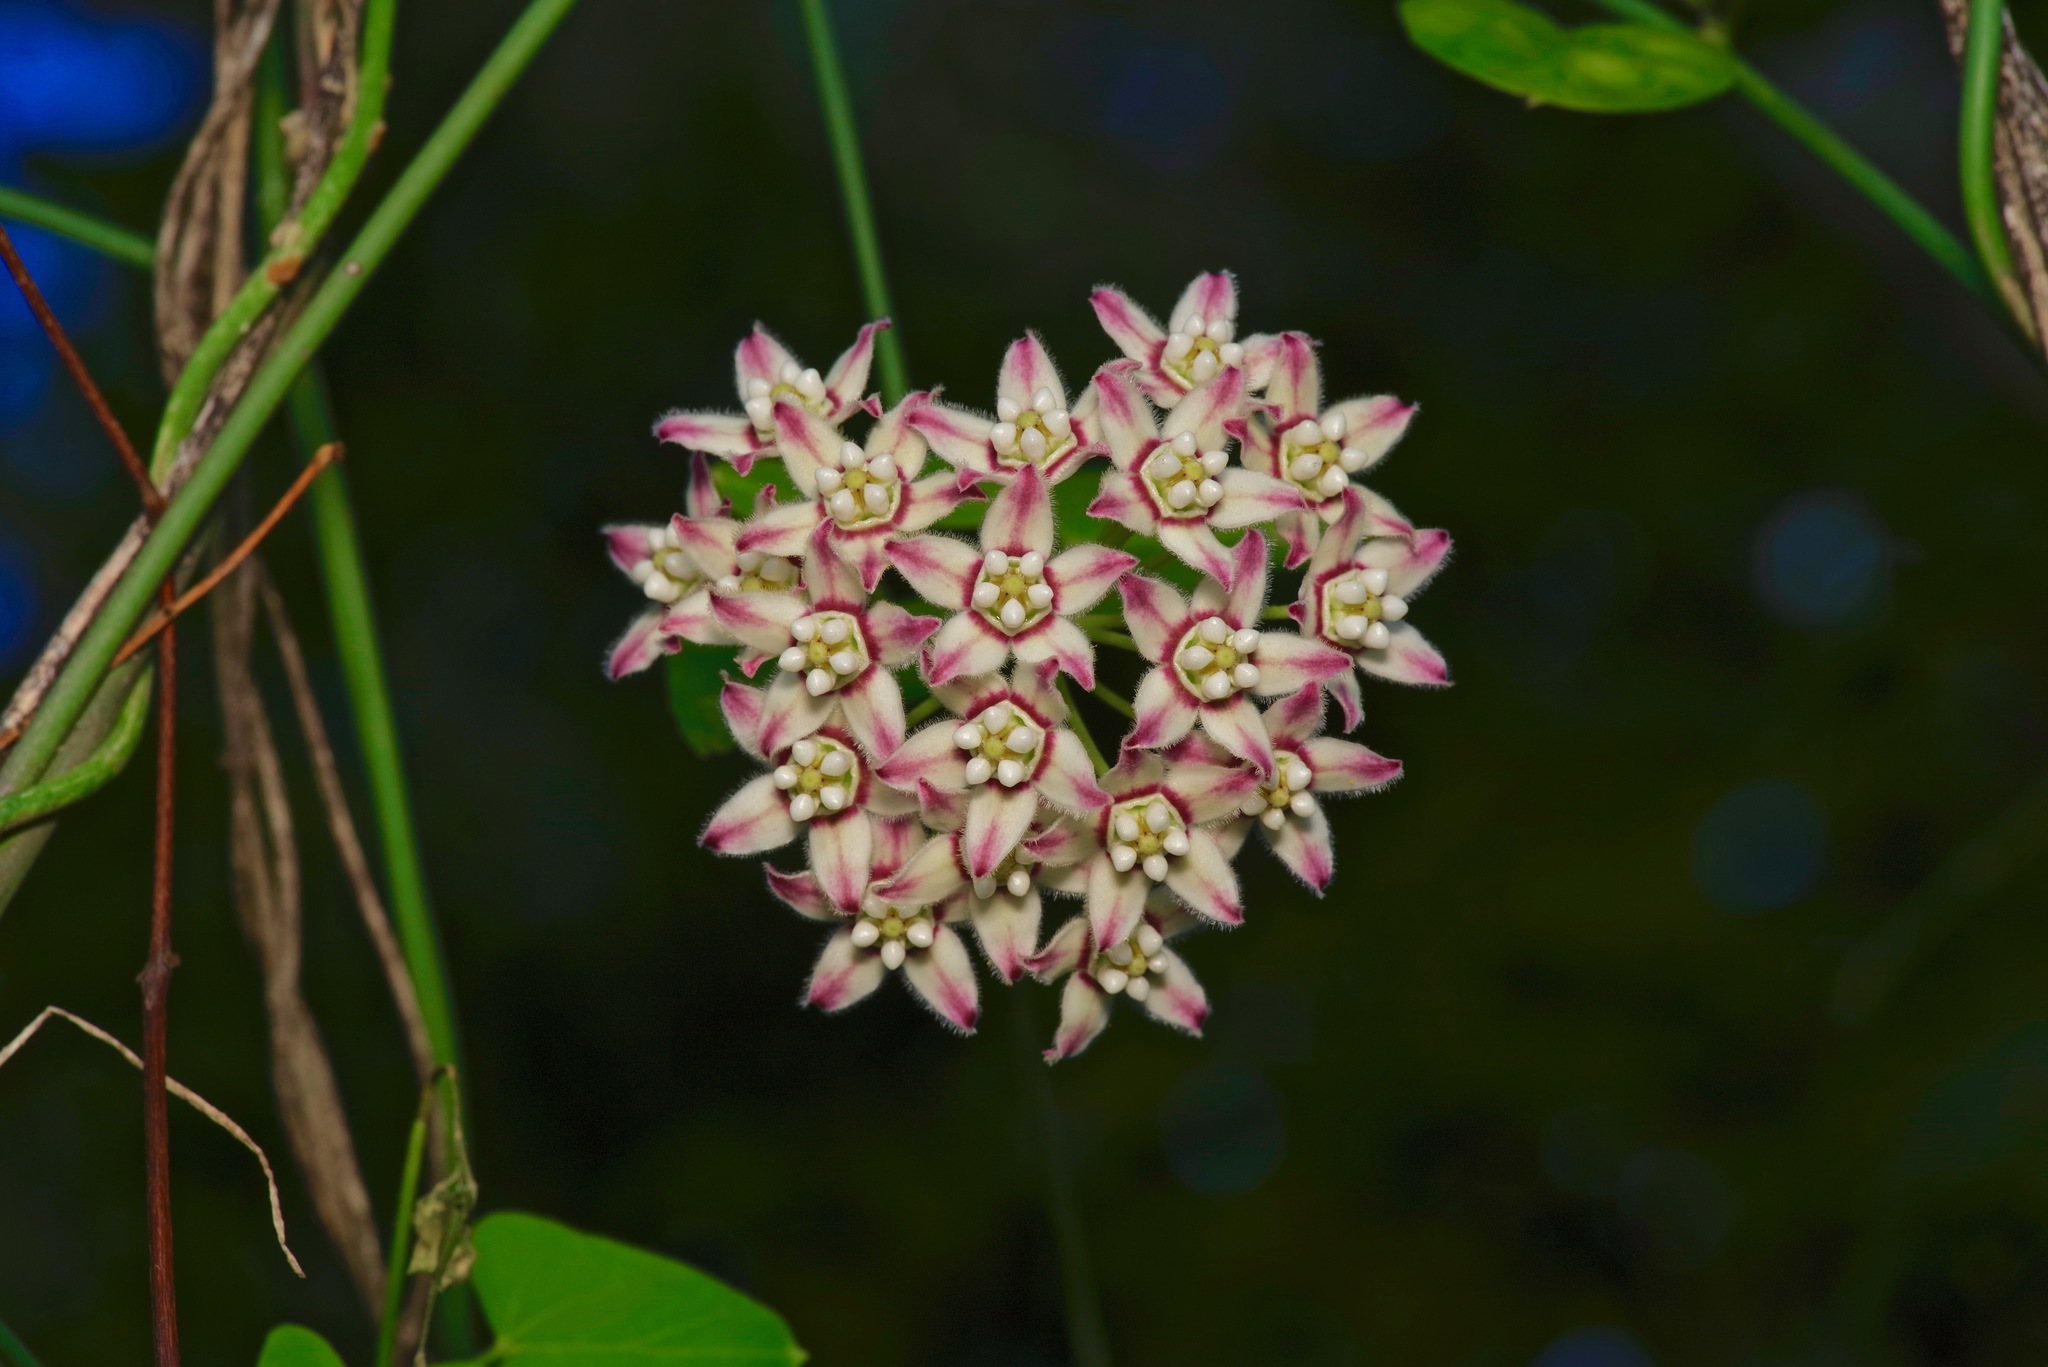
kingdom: Plantae
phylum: Tracheophyta
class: Magnoliopsida
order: Gentianales
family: Apocynaceae
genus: Funastrum
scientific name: Funastrum cynanchoides
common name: Climbing-milkweed
